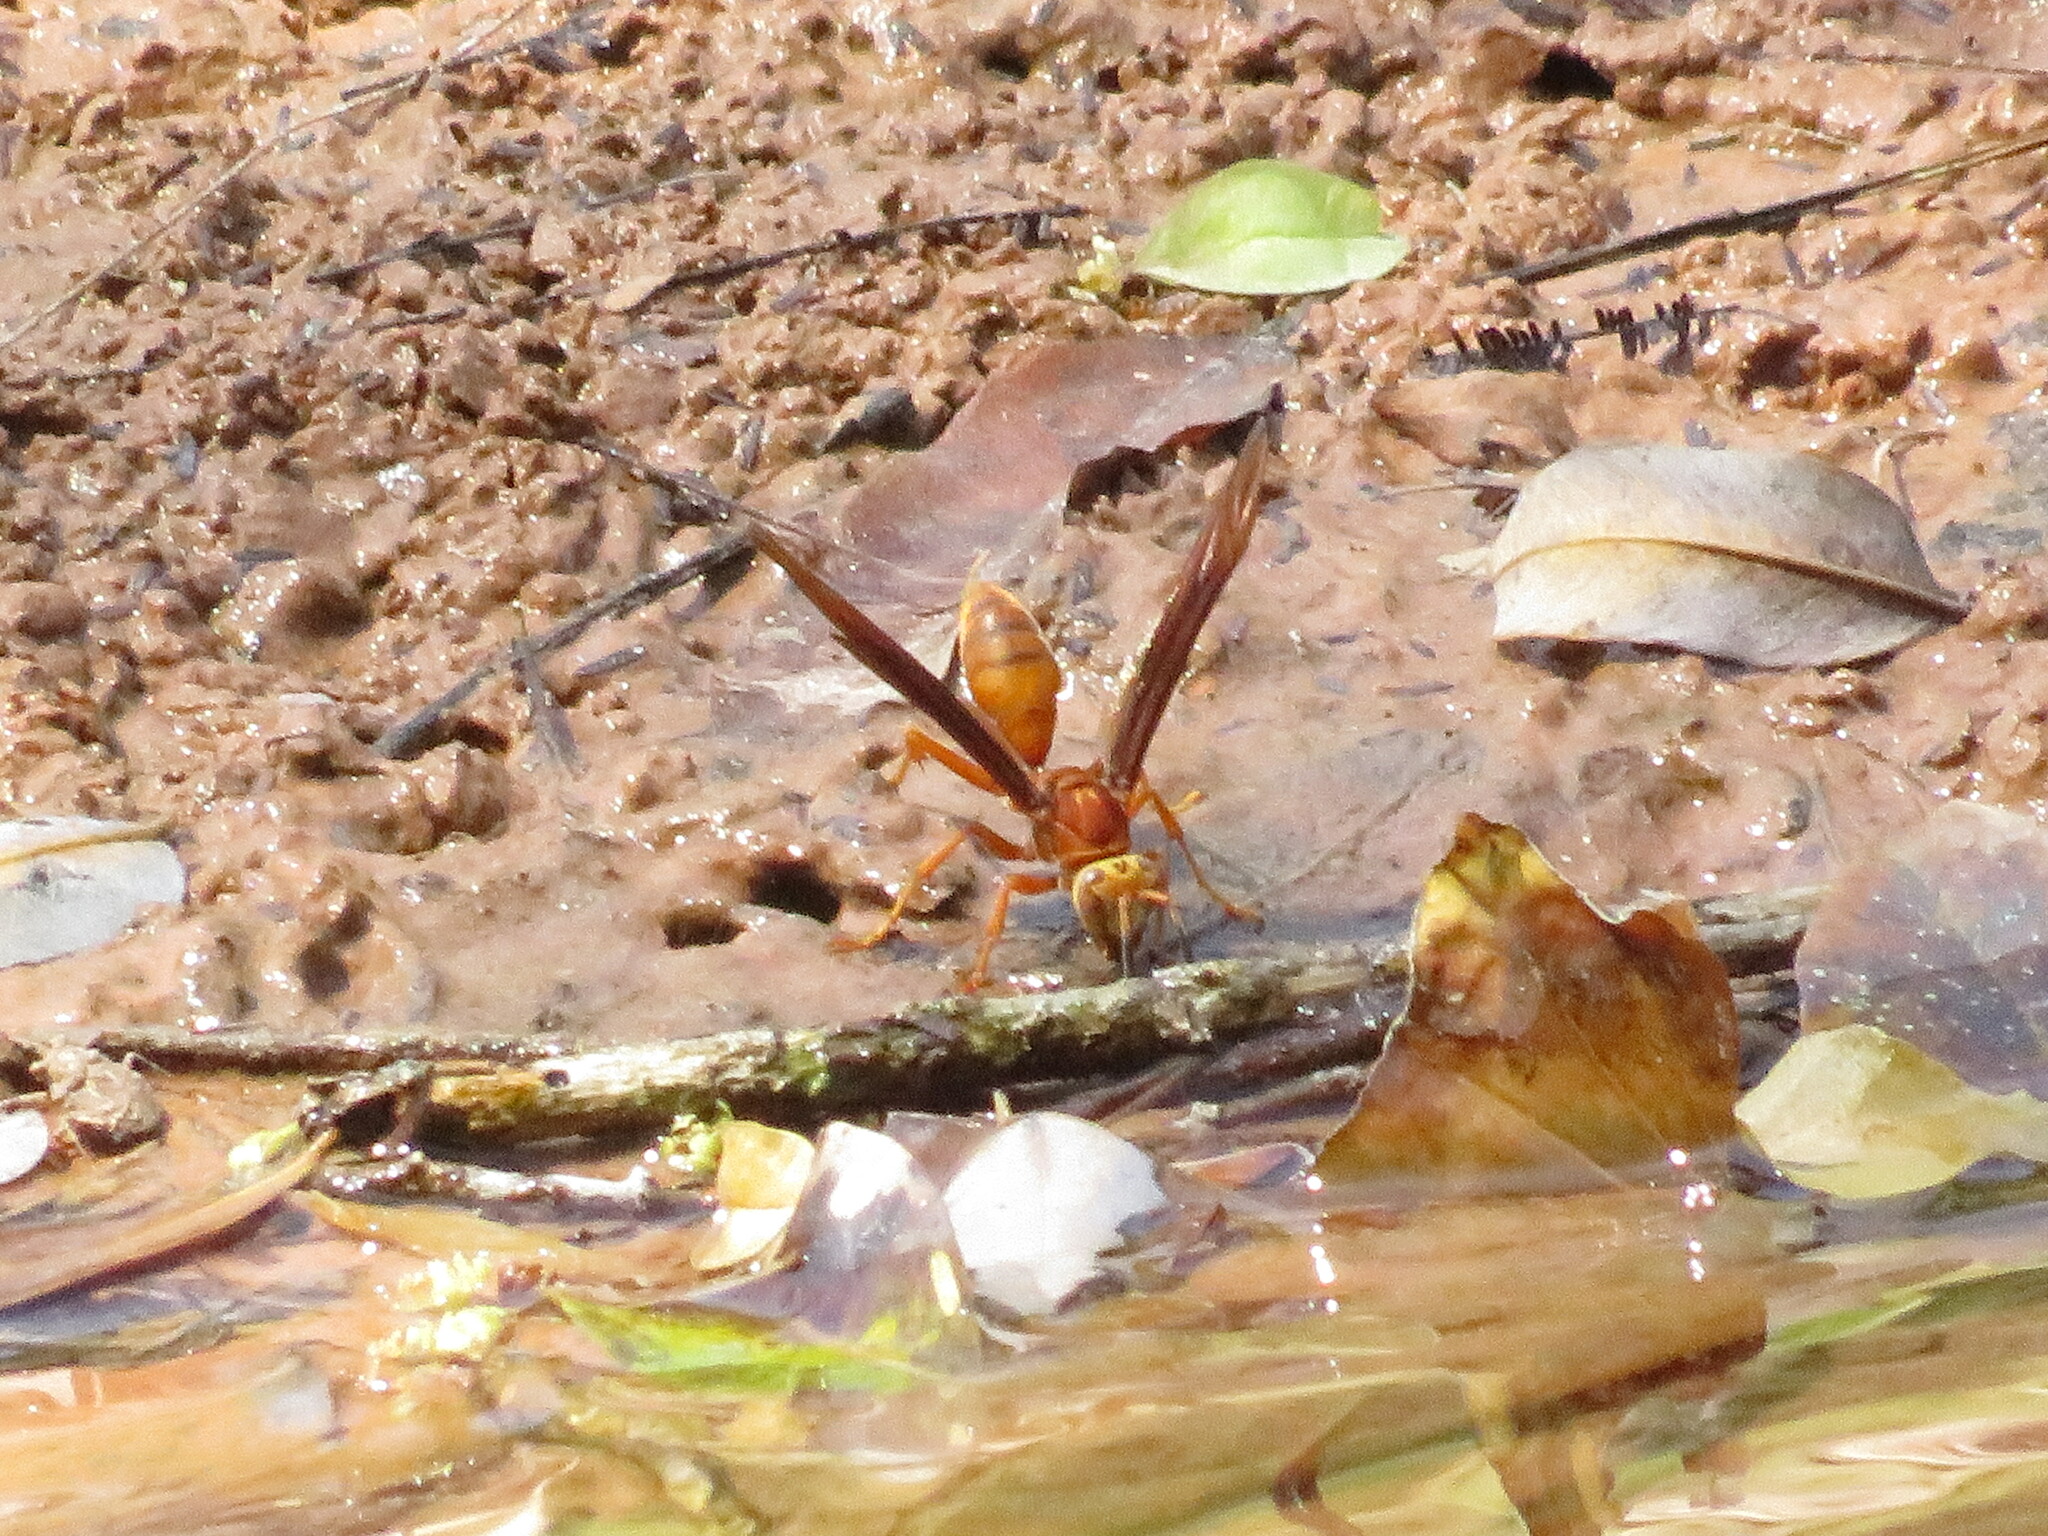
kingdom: Animalia
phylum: Arthropoda
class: Insecta
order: Hymenoptera
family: Eumenidae
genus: Polistes
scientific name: Polistes cavapyta
